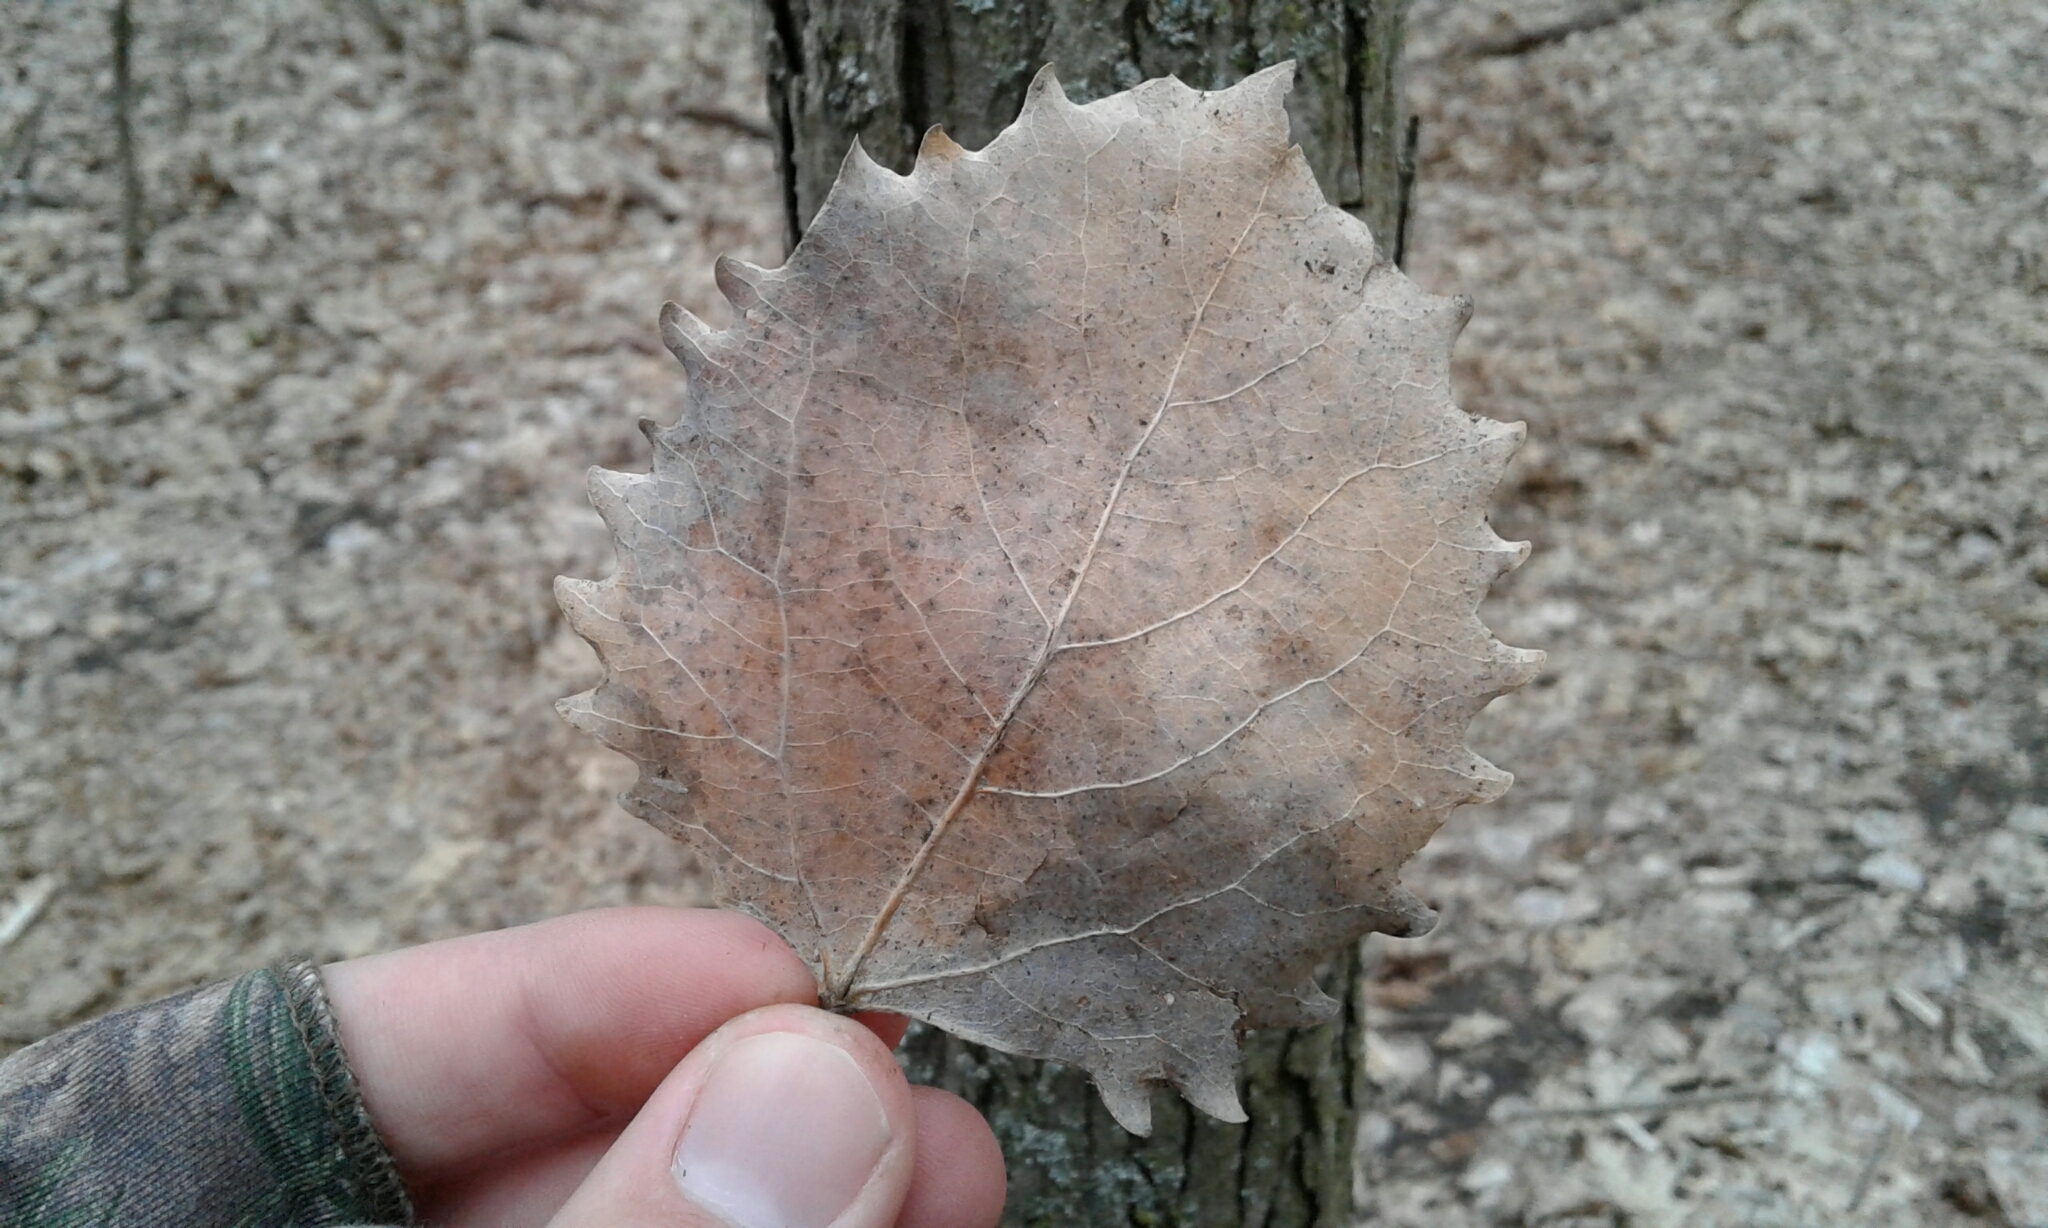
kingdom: Plantae
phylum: Tracheophyta
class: Magnoliopsida
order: Malpighiales
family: Salicaceae
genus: Populus
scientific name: Populus grandidentata
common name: Bigtooth aspen
